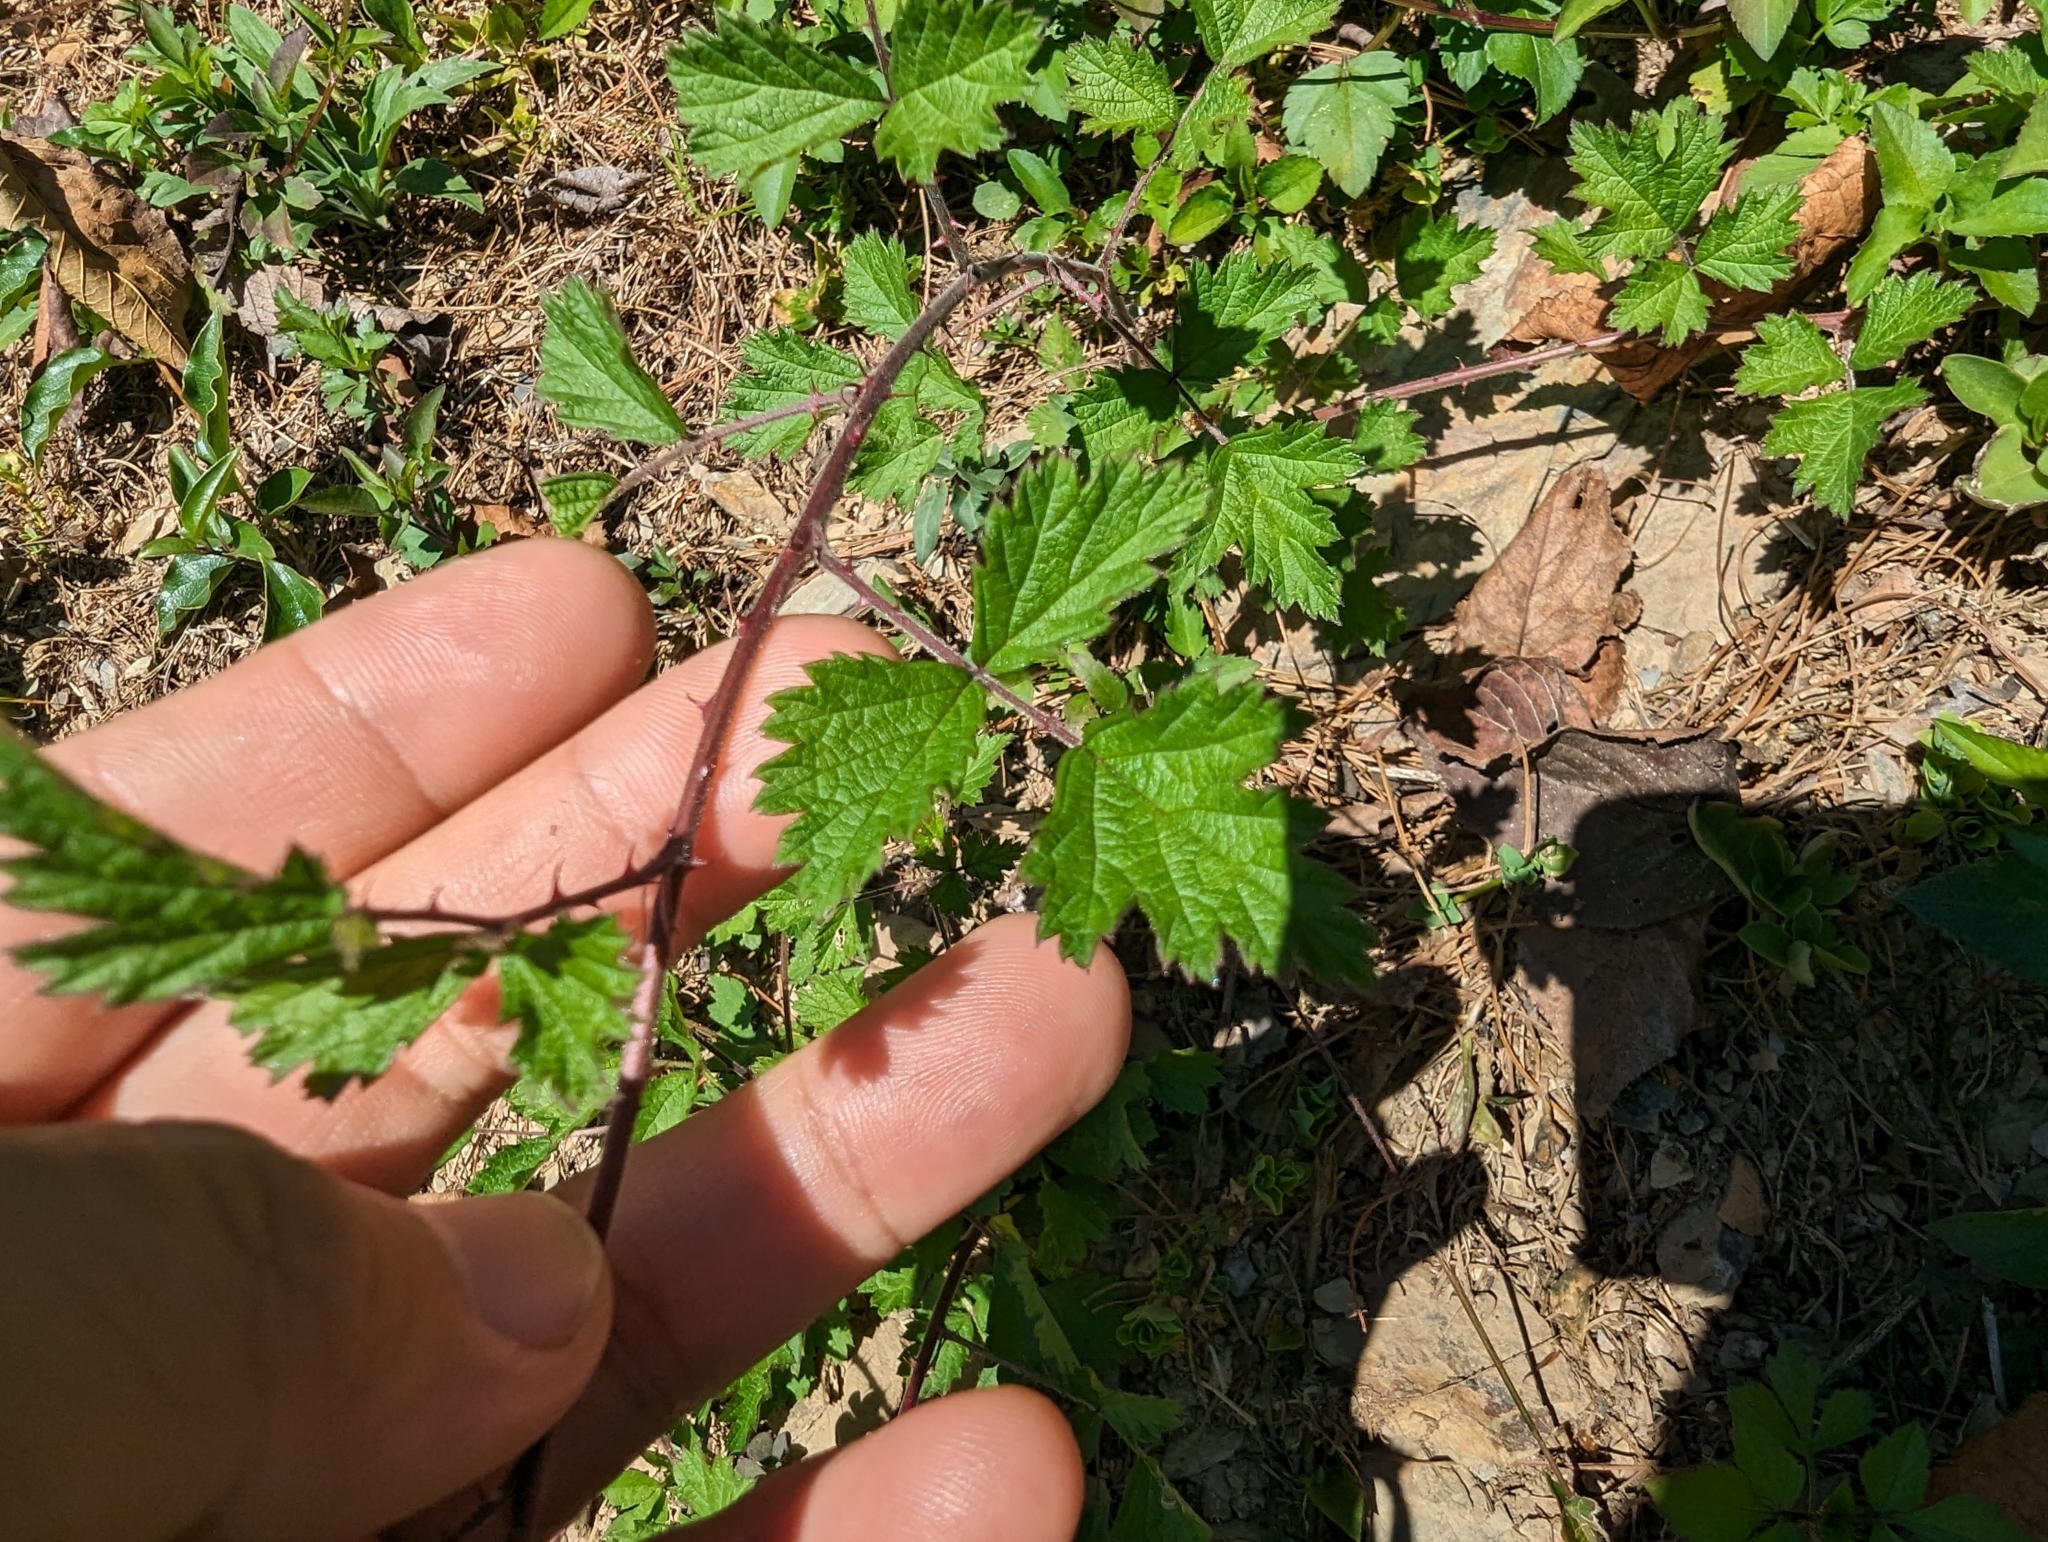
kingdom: Plantae
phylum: Tracheophyta
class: Magnoliopsida
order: Rosales
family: Rosaceae
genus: Rubus
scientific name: Rubus parvifolius
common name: Threeleaf blackberry
